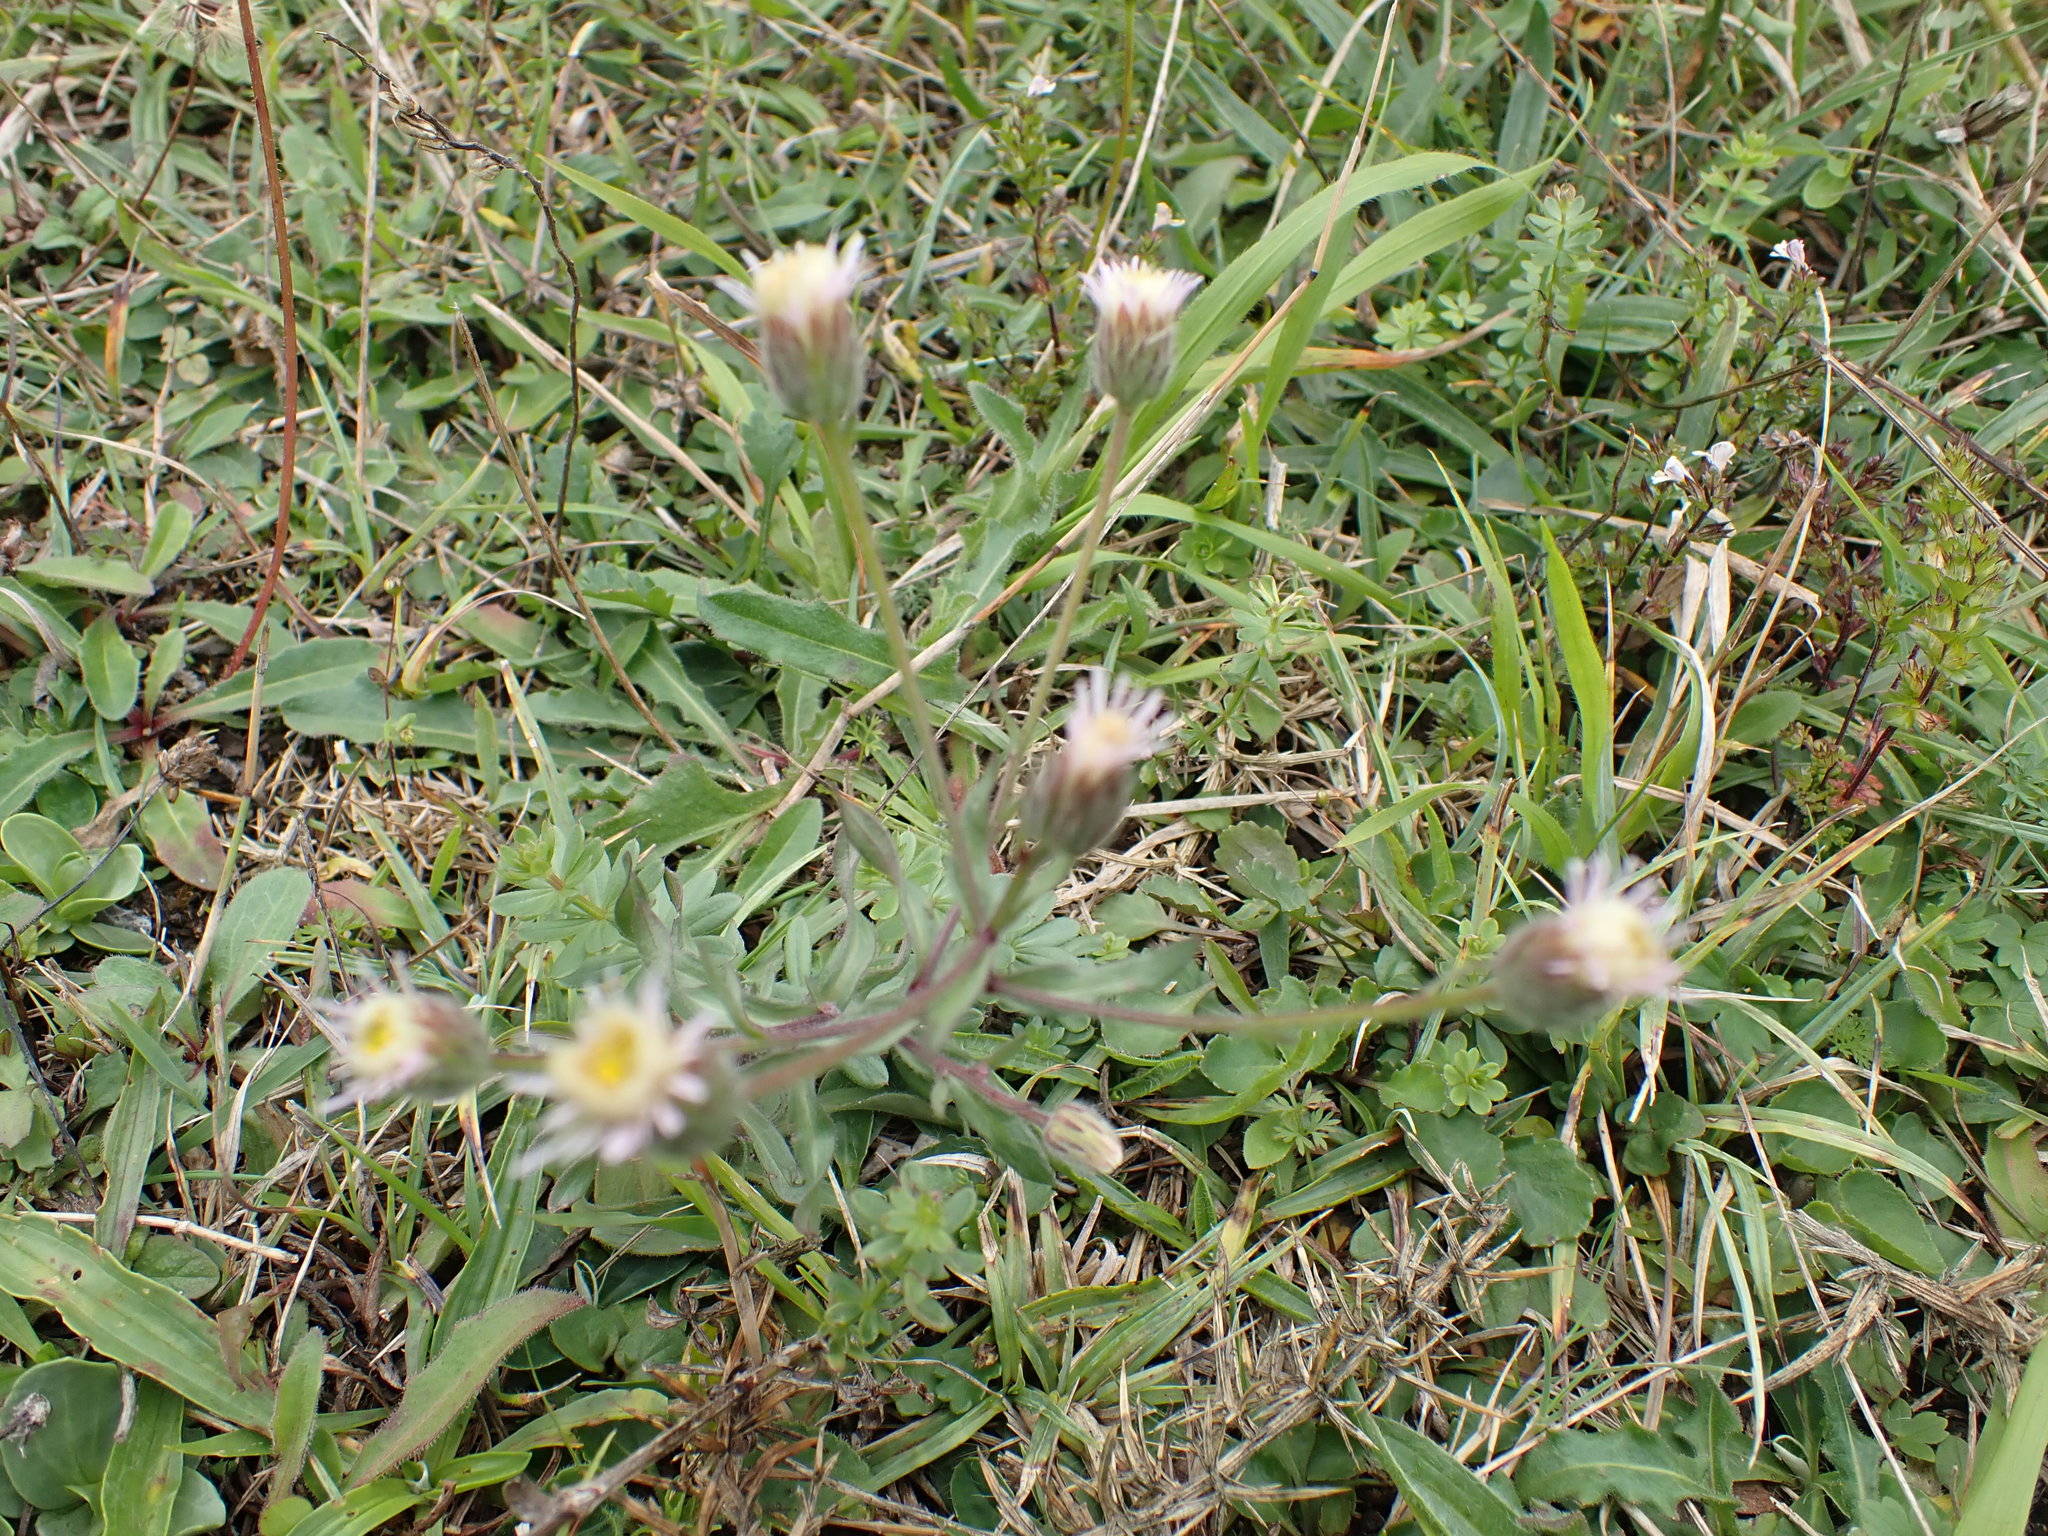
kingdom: Plantae
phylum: Tracheophyta
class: Magnoliopsida
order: Asterales
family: Asteraceae
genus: Erigeron
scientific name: Erigeron acris
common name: Blue fleabane
